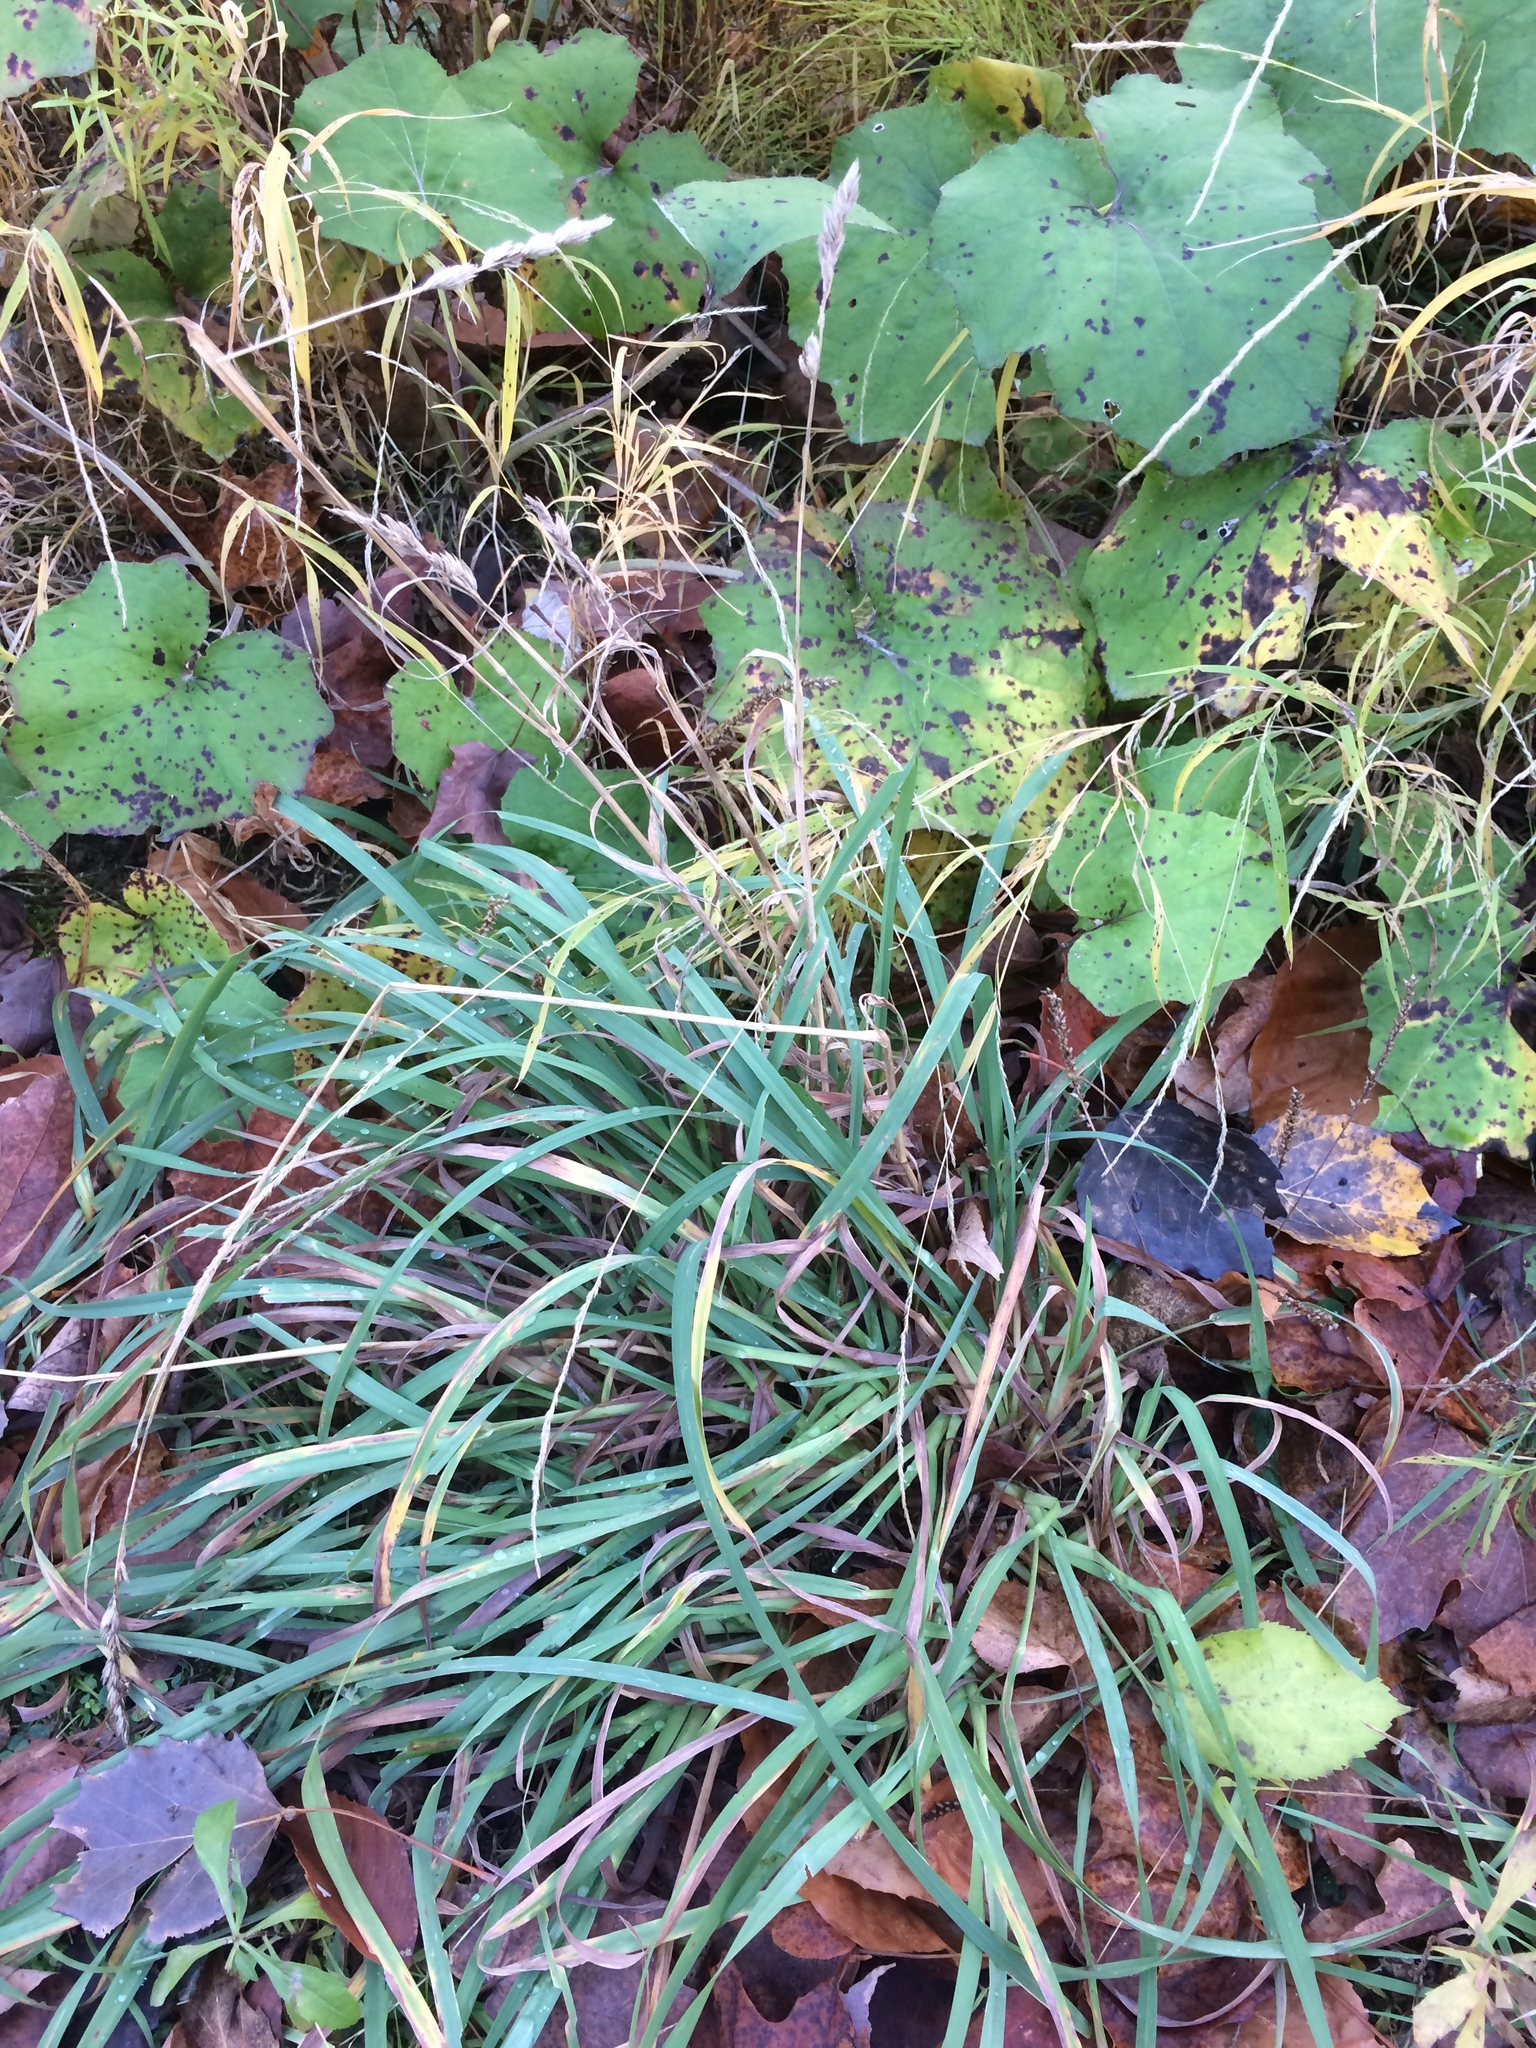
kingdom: Plantae
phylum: Tracheophyta
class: Liliopsida
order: Poales
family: Poaceae
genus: Dactylis
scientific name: Dactylis glomerata
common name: Orchardgrass
